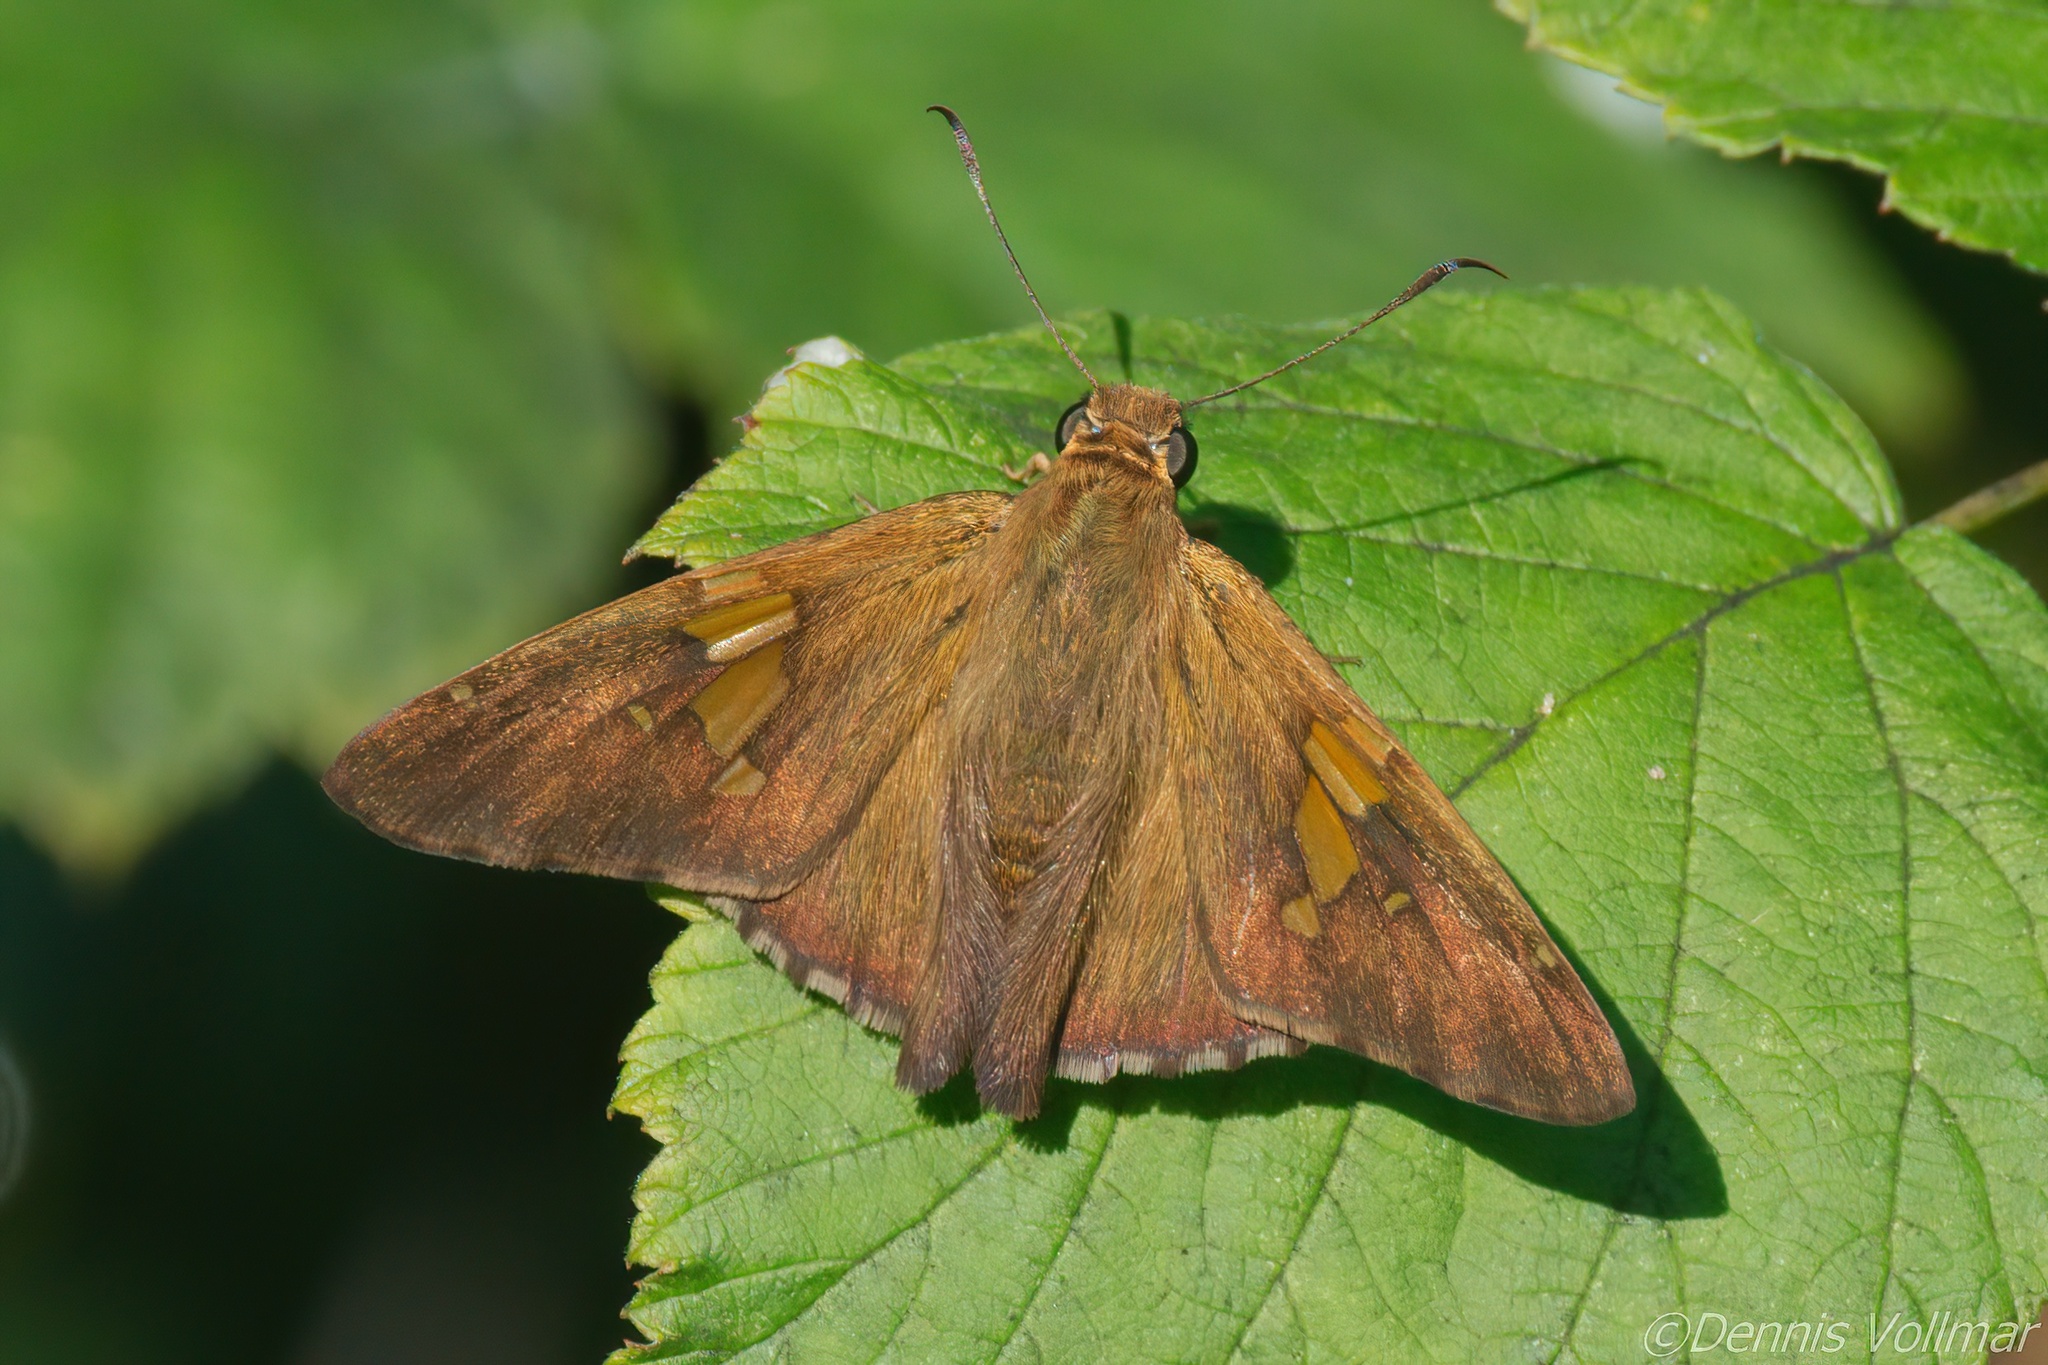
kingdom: Animalia
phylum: Arthropoda
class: Insecta
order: Lepidoptera
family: Hesperiidae
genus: Epargyreus
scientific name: Epargyreus clarus
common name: Silver-spotted skipper
